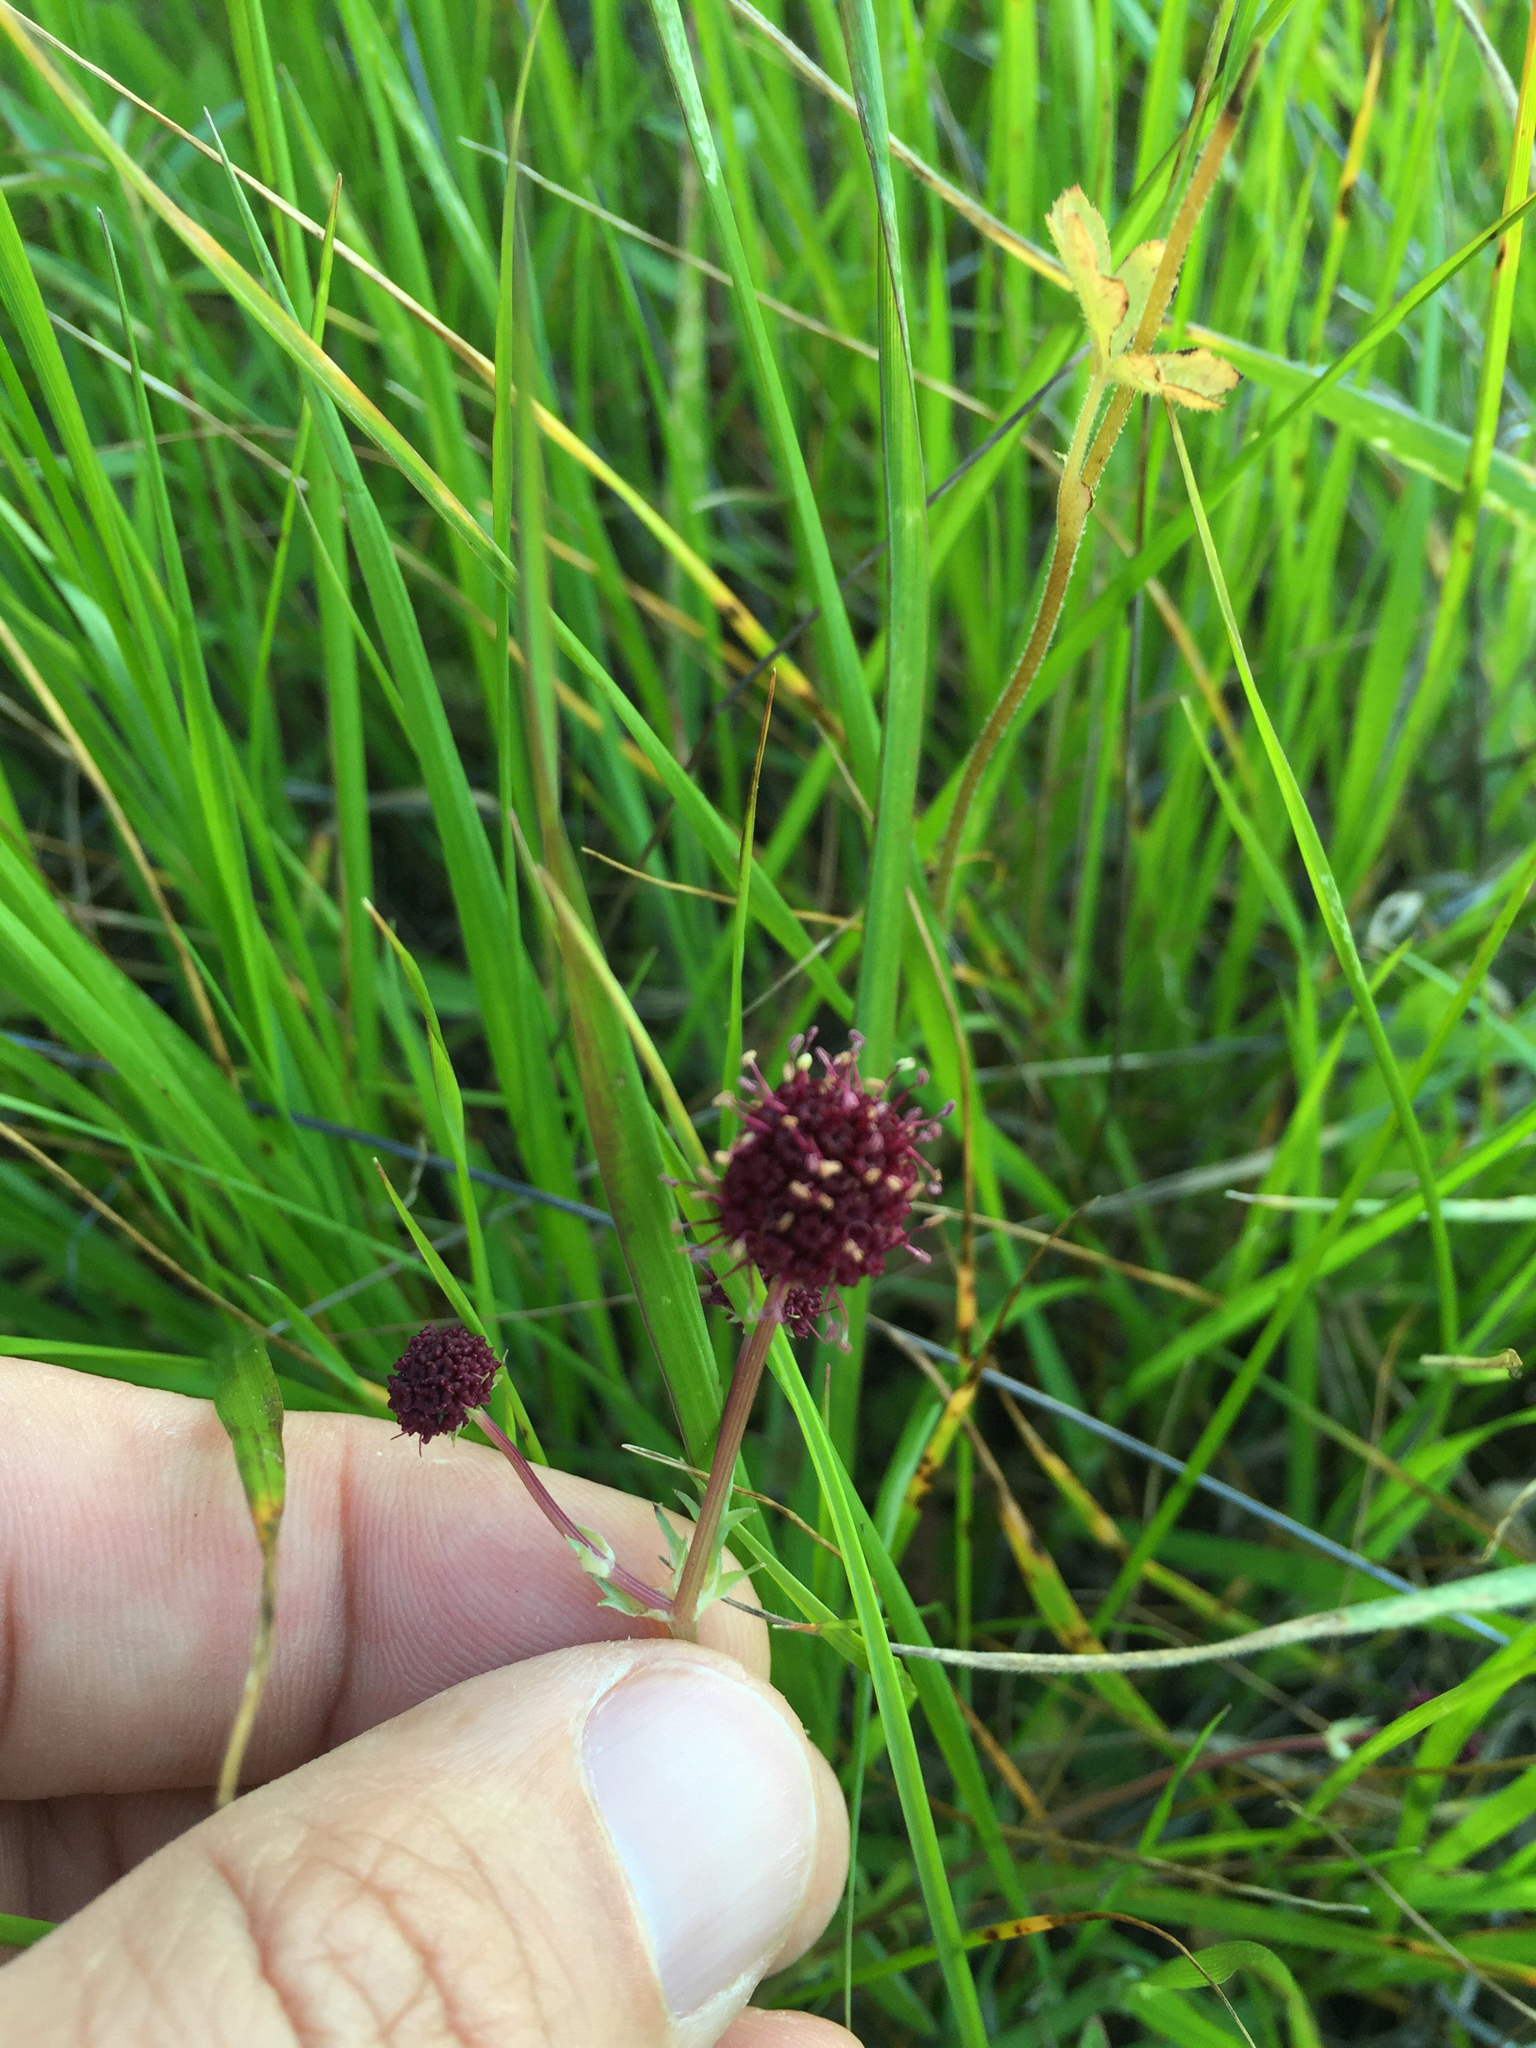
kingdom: Plantae
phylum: Tracheophyta
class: Magnoliopsida
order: Apiales
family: Apiaceae
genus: Sanicula
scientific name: Sanicula bipinnatifida
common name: Shoe-buttons
